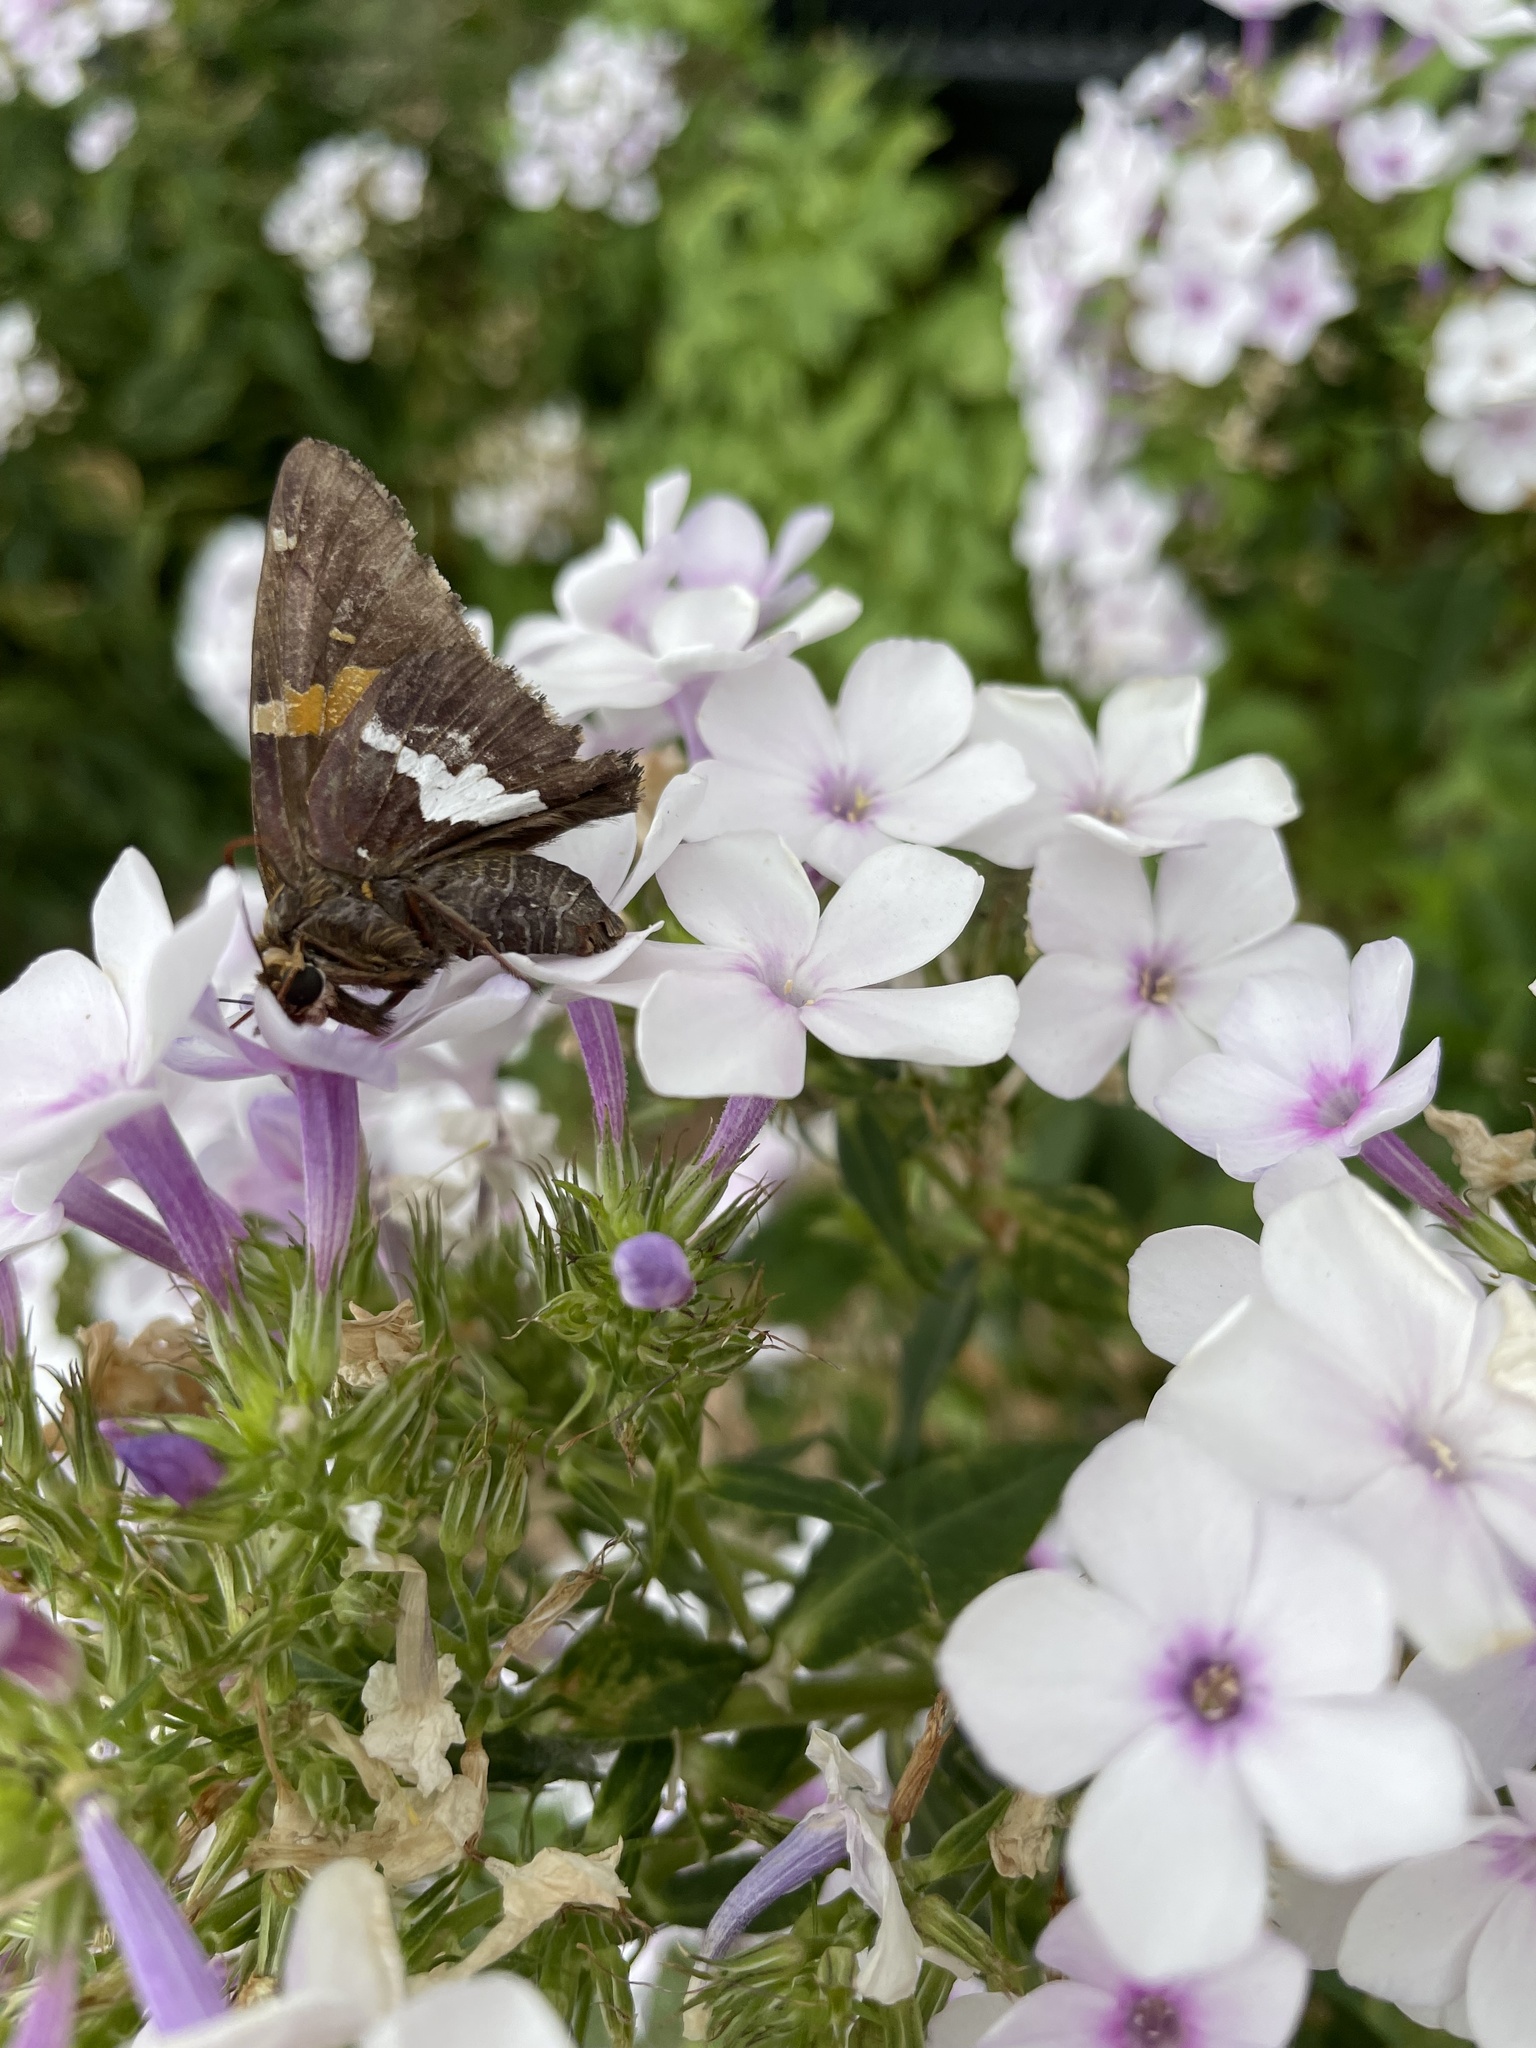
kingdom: Animalia
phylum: Arthropoda
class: Insecta
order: Lepidoptera
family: Hesperiidae
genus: Epargyreus
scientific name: Epargyreus clarus
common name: Silver-spotted skipper
